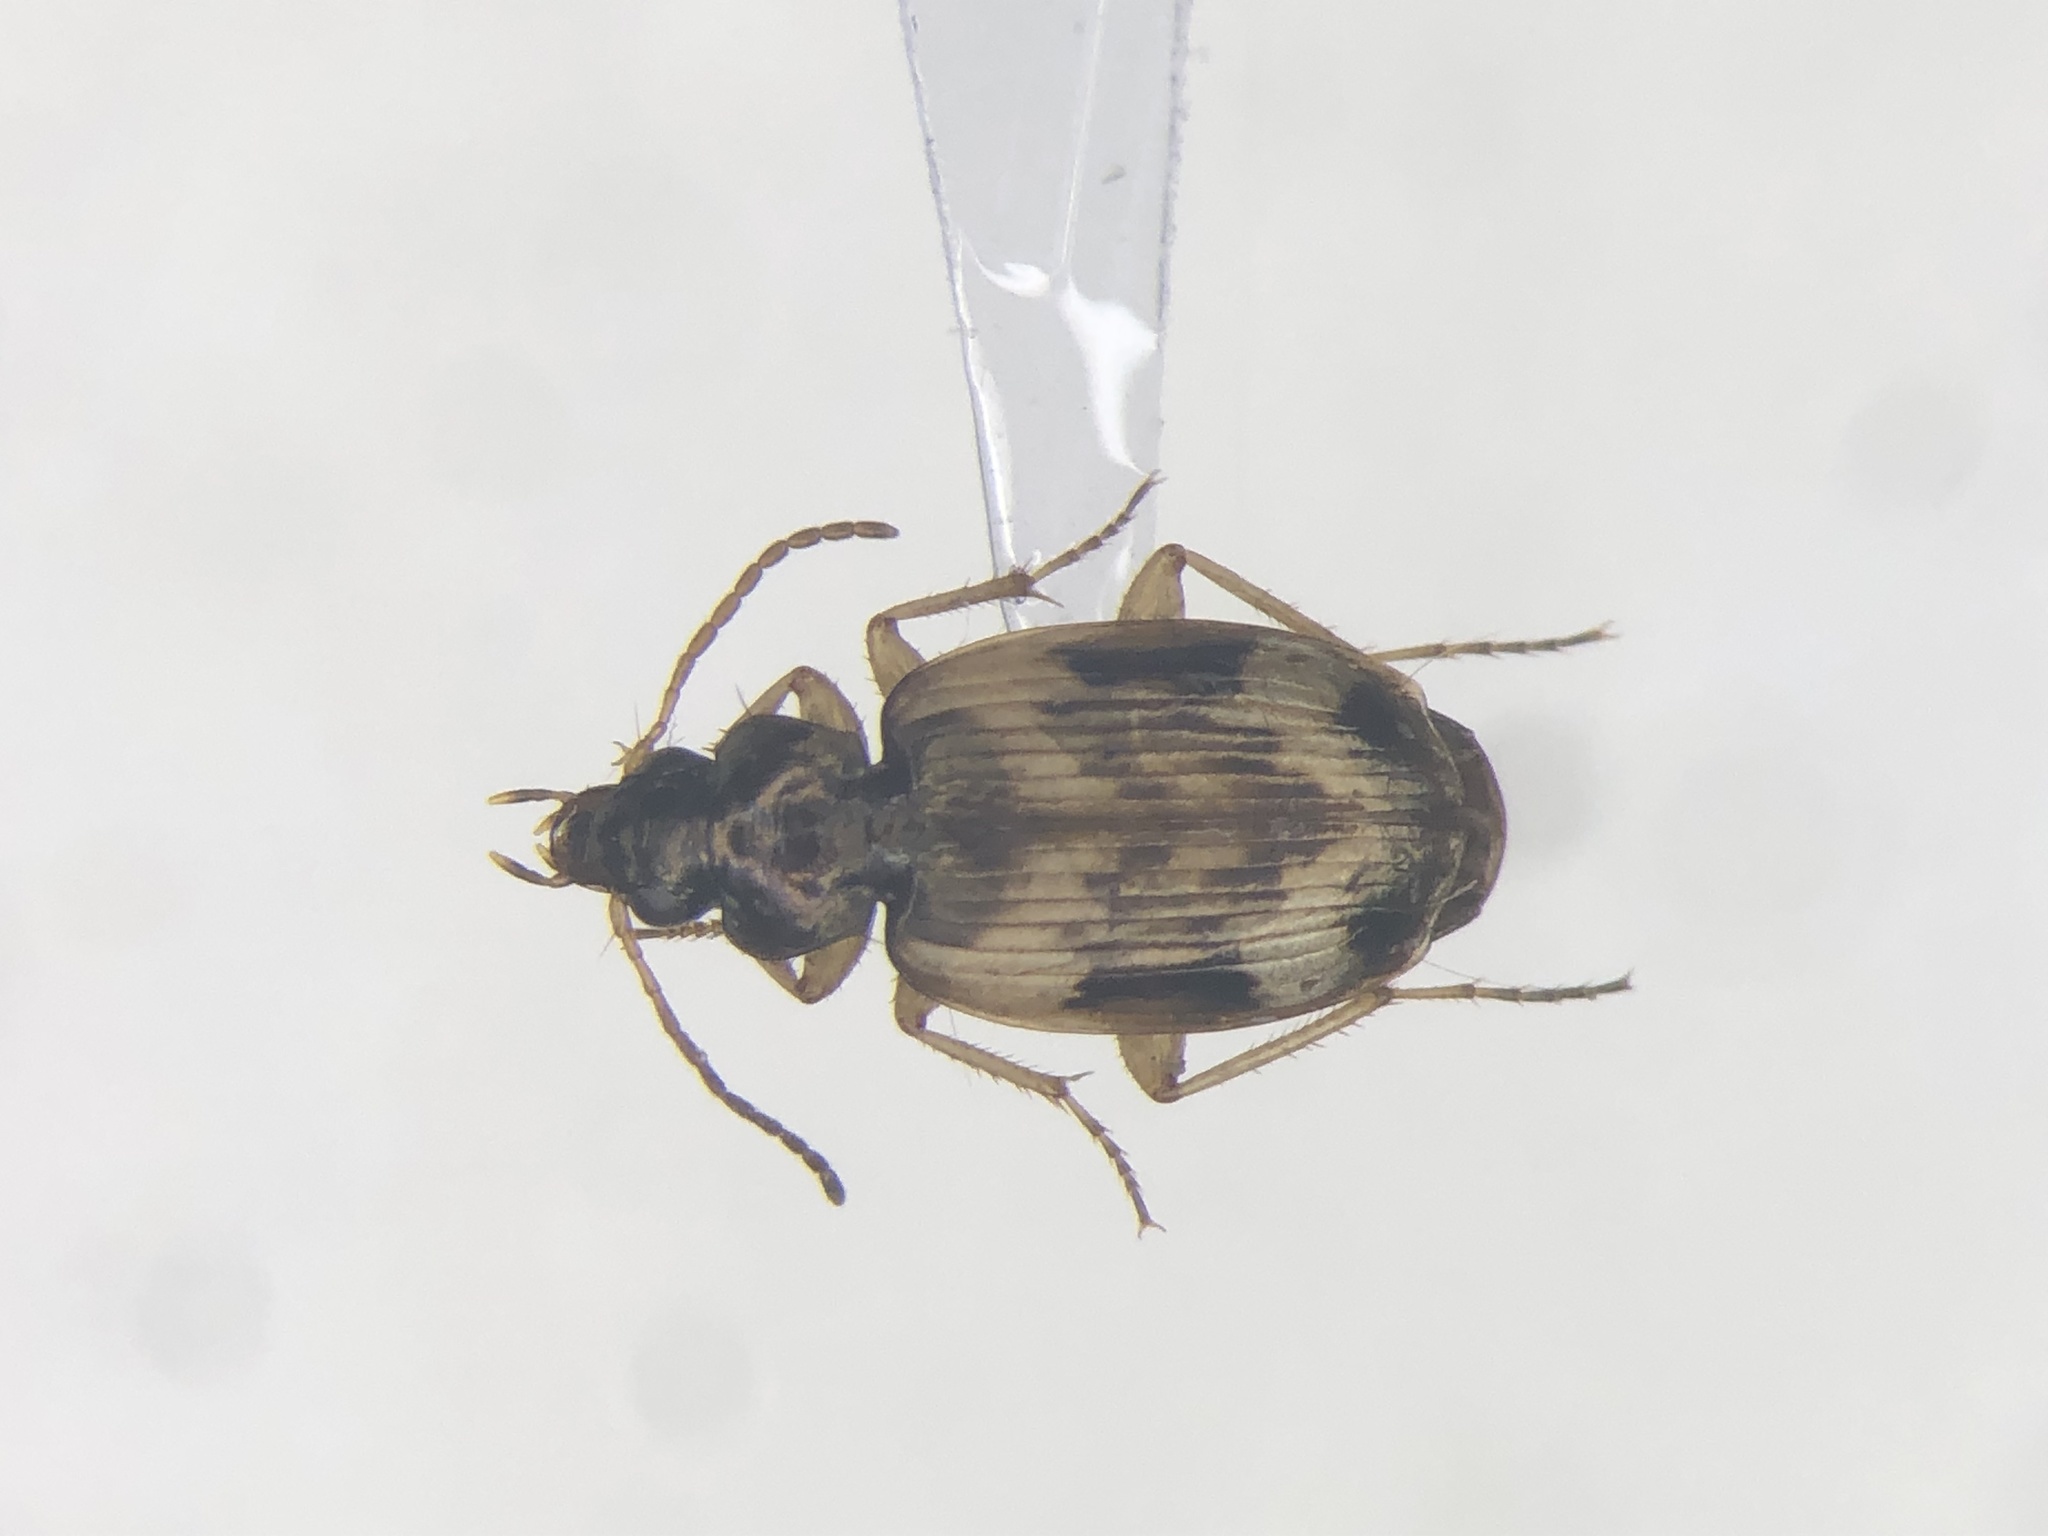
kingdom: Animalia
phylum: Arthropoda
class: Insecta
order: Coleoptera
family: Carabidae
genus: Tetragonoderus
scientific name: Tetragonoderus fasciatus
